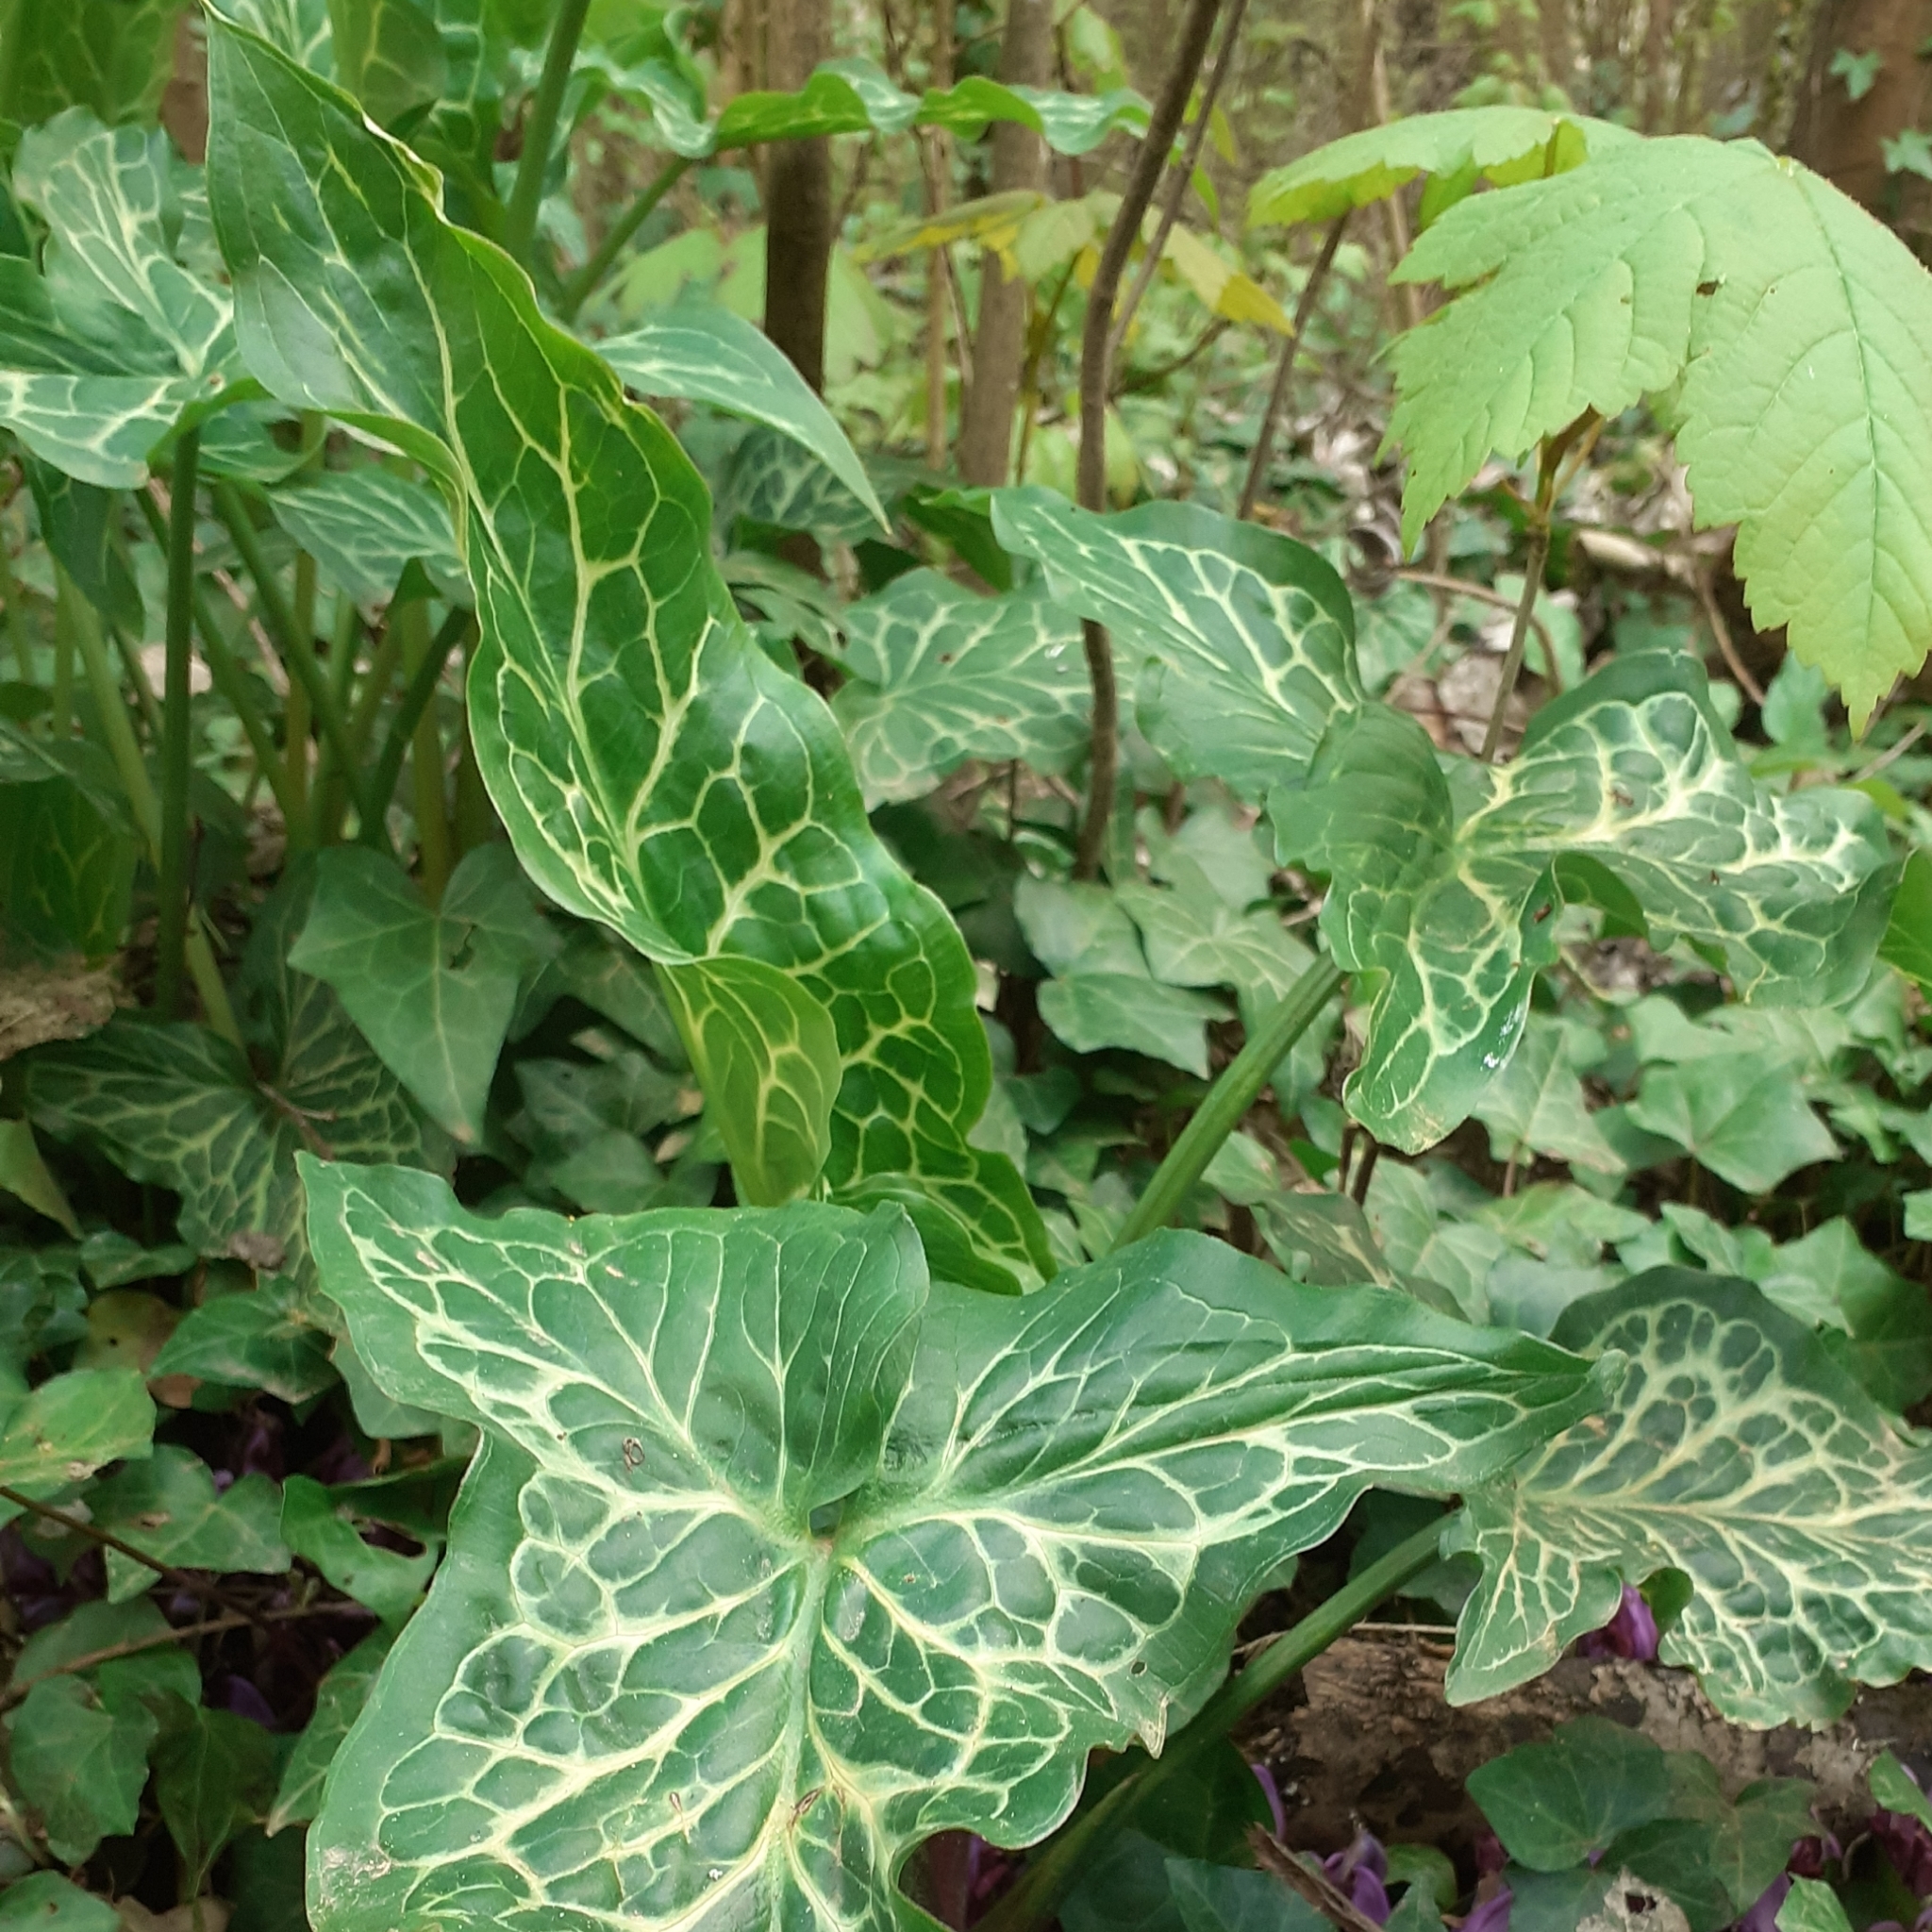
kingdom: Plantae
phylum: Tracheophyta
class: Liliopsida
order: Alismatales
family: Araceae
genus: Arum
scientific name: Arum italicum
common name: Italian lords-and-ladies
